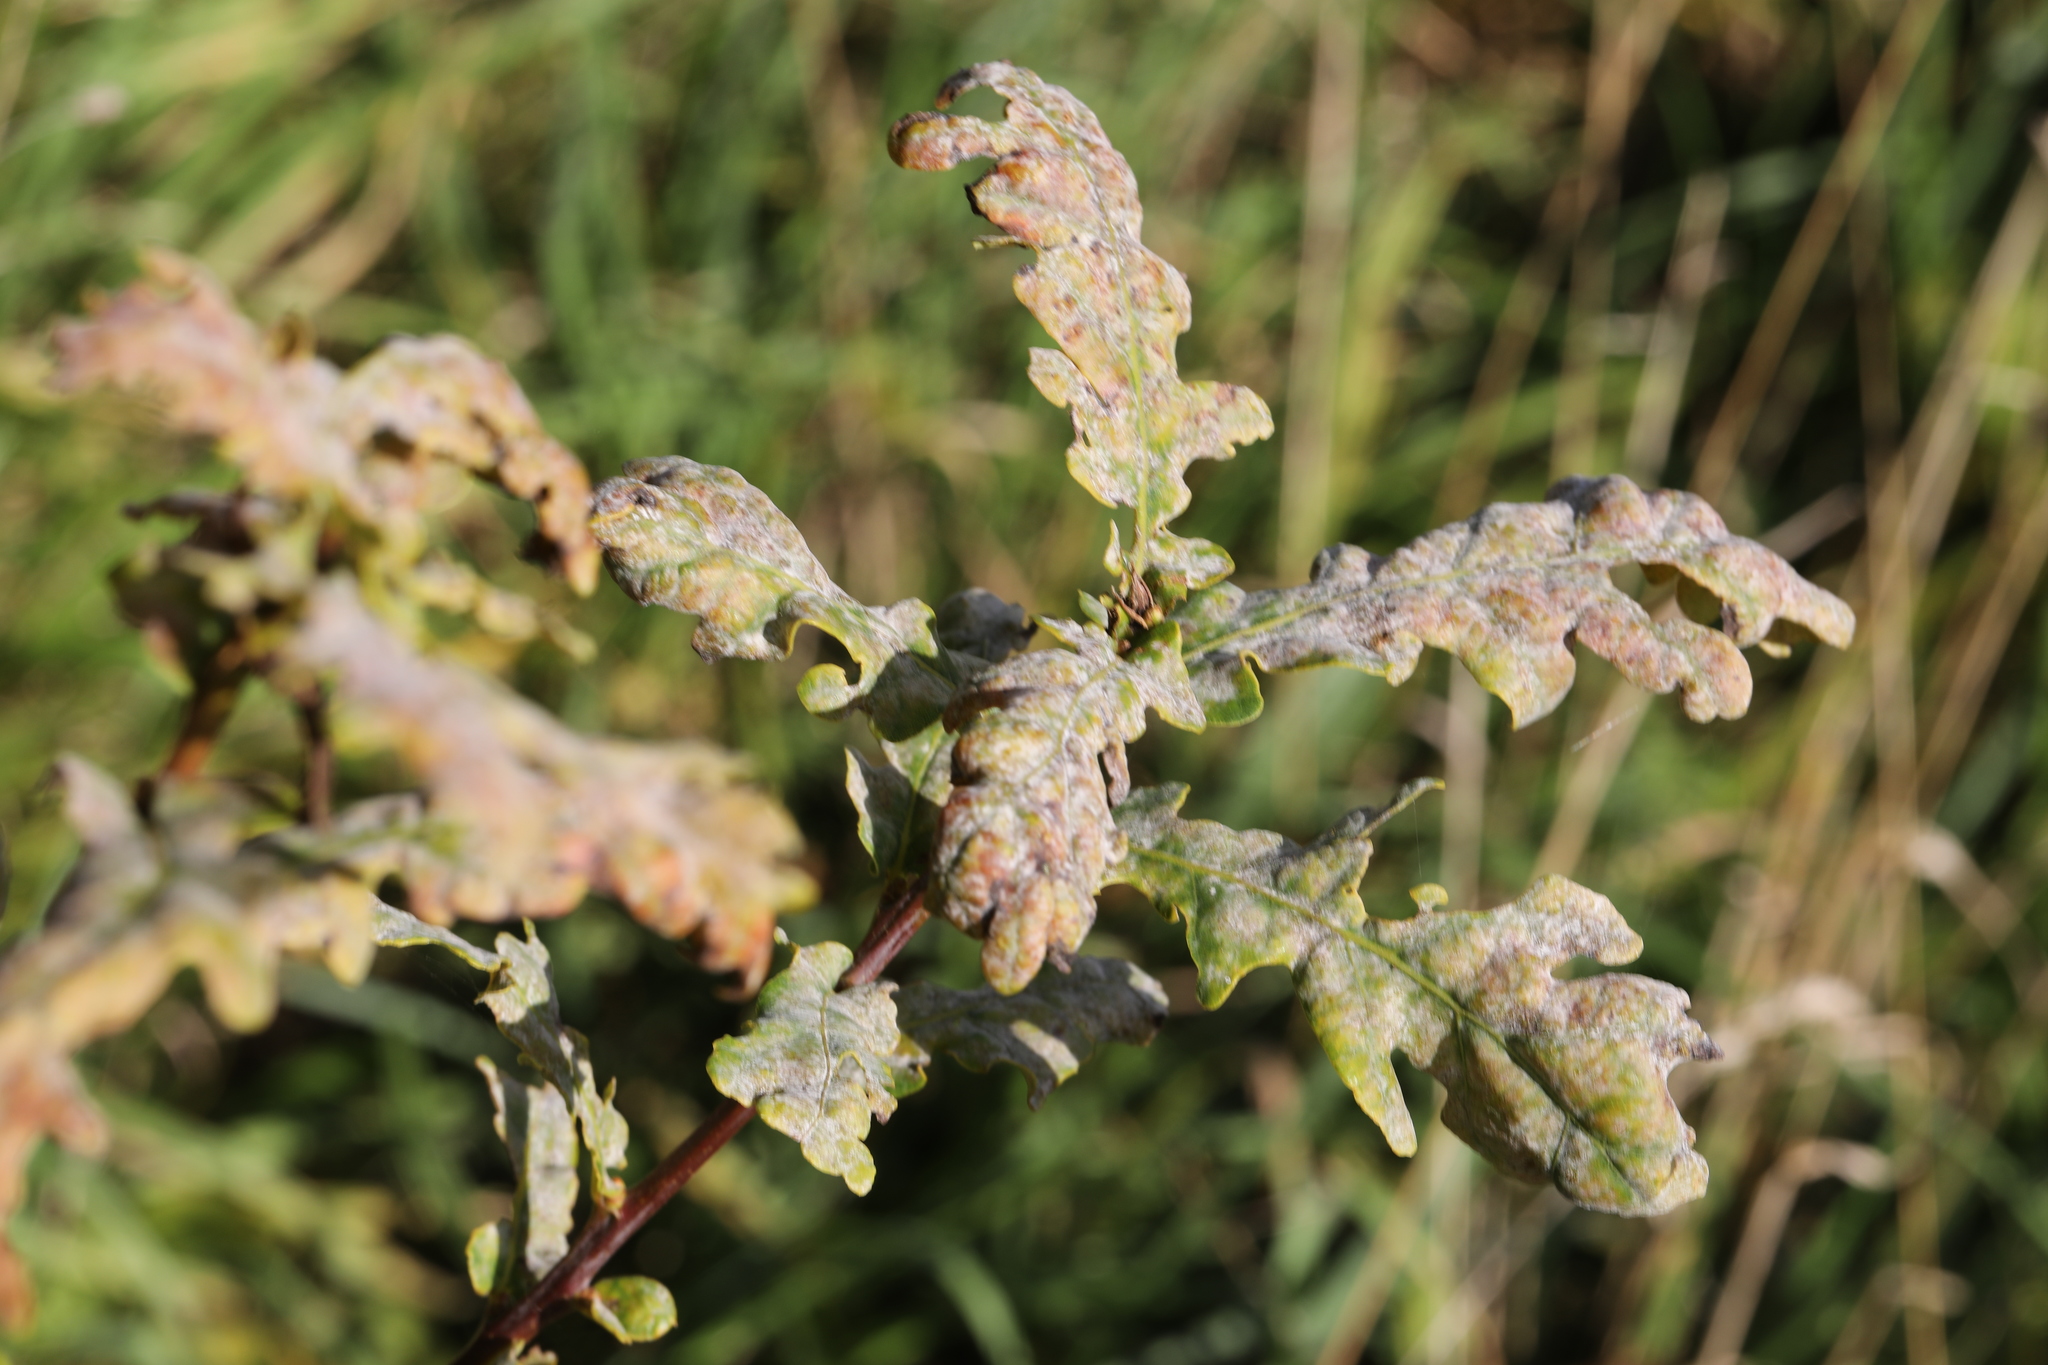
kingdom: Fungi
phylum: Ascomycota
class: Leotiomycetes
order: Helotiales
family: Erysiphaceae
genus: Erysiphe
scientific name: Erysiphe alphitoides
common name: Oak mildew
